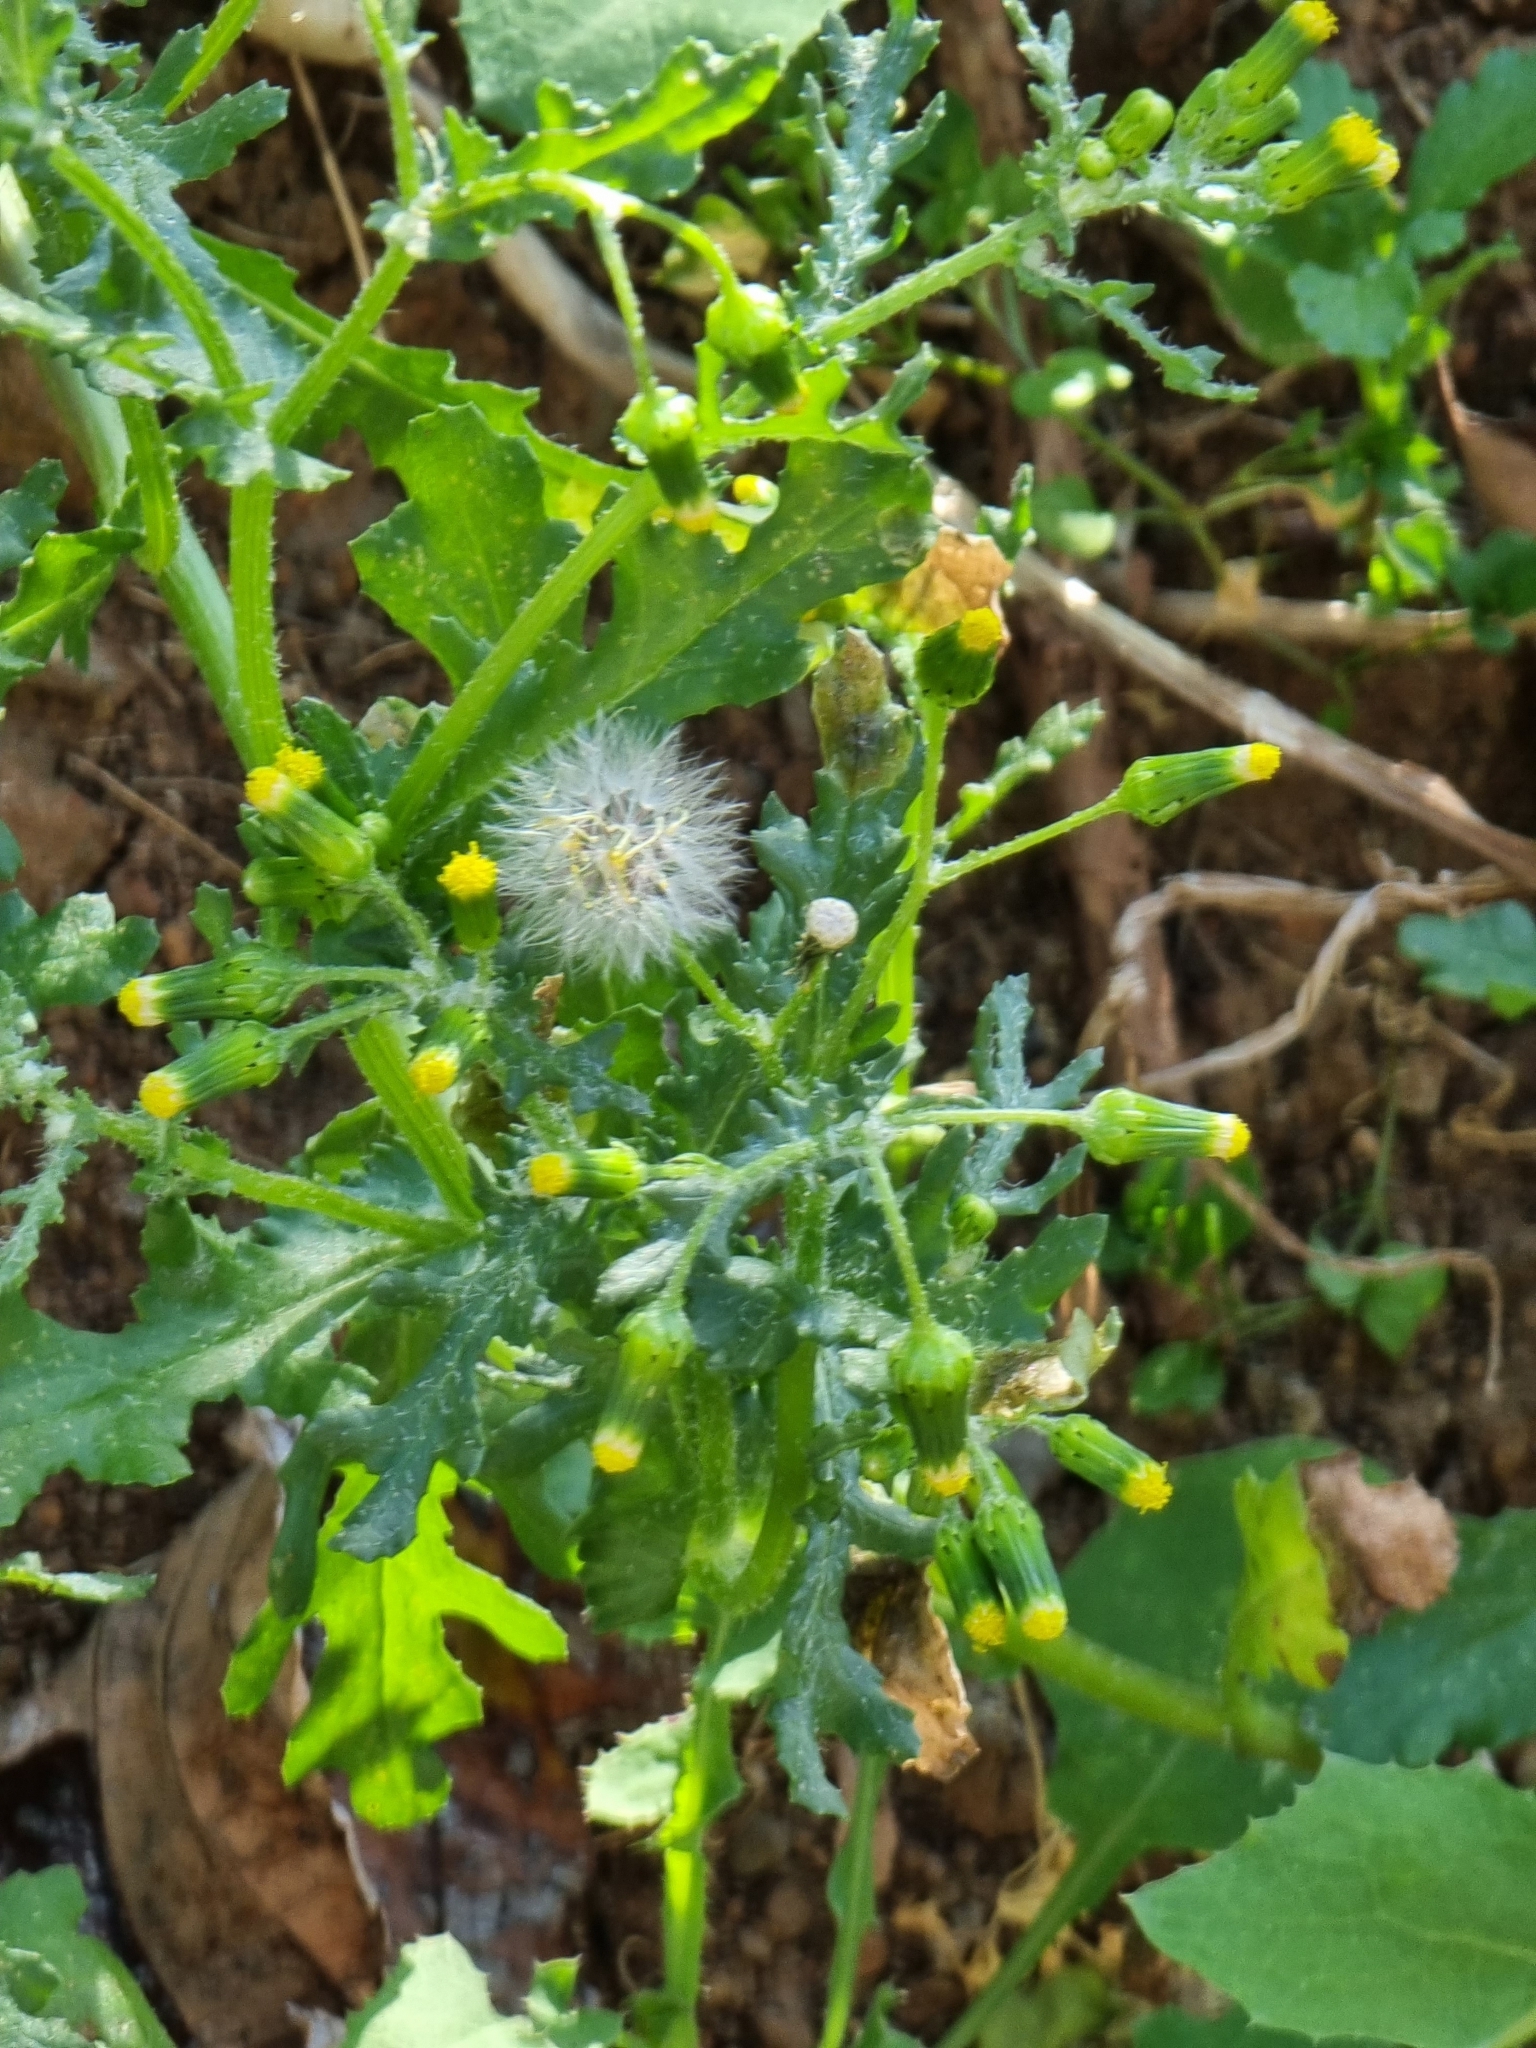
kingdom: Plantae
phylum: Tracheophyta
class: Magnoliopsida
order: Asterales
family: Asteraceae
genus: Senecio
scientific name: Senecio vulgaris
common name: Old-man-in-the-spring
